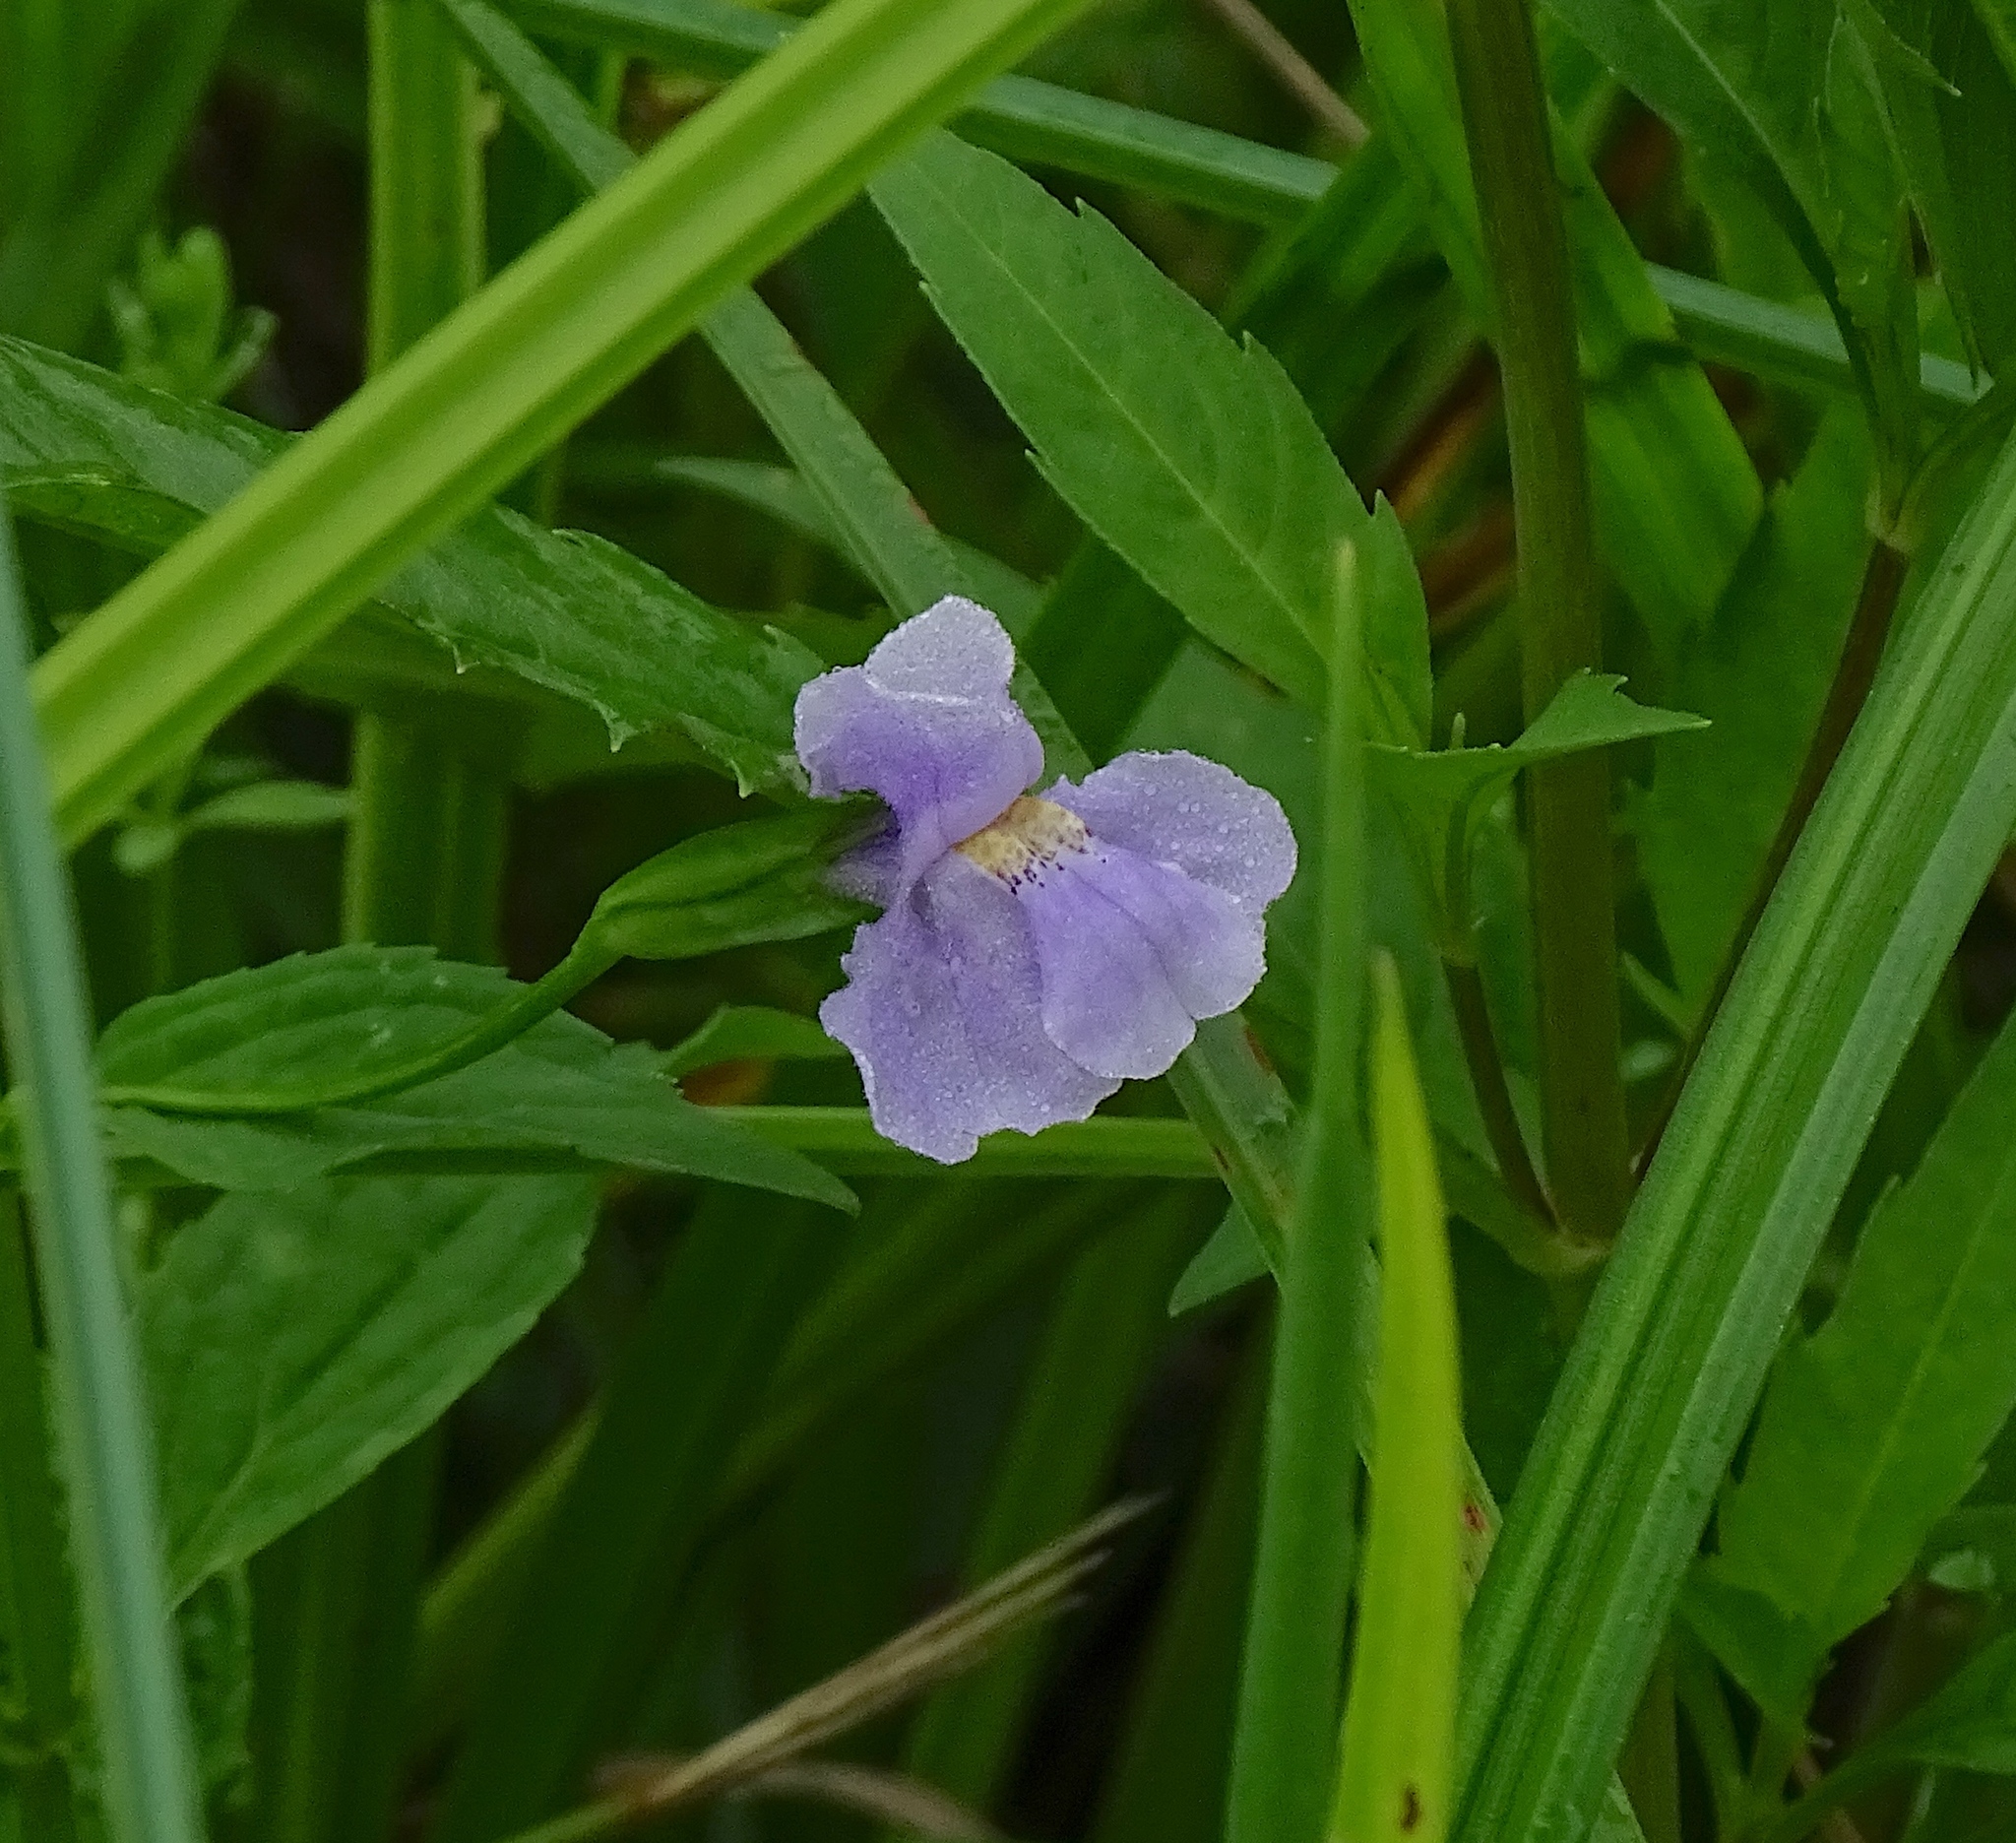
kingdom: Plantae
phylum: Tracheophyta
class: Magnoliopsida
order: Lamiales
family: Phrymaceae
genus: Mimulus
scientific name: Mimulus ringens
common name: Allegheny monkeyflower
